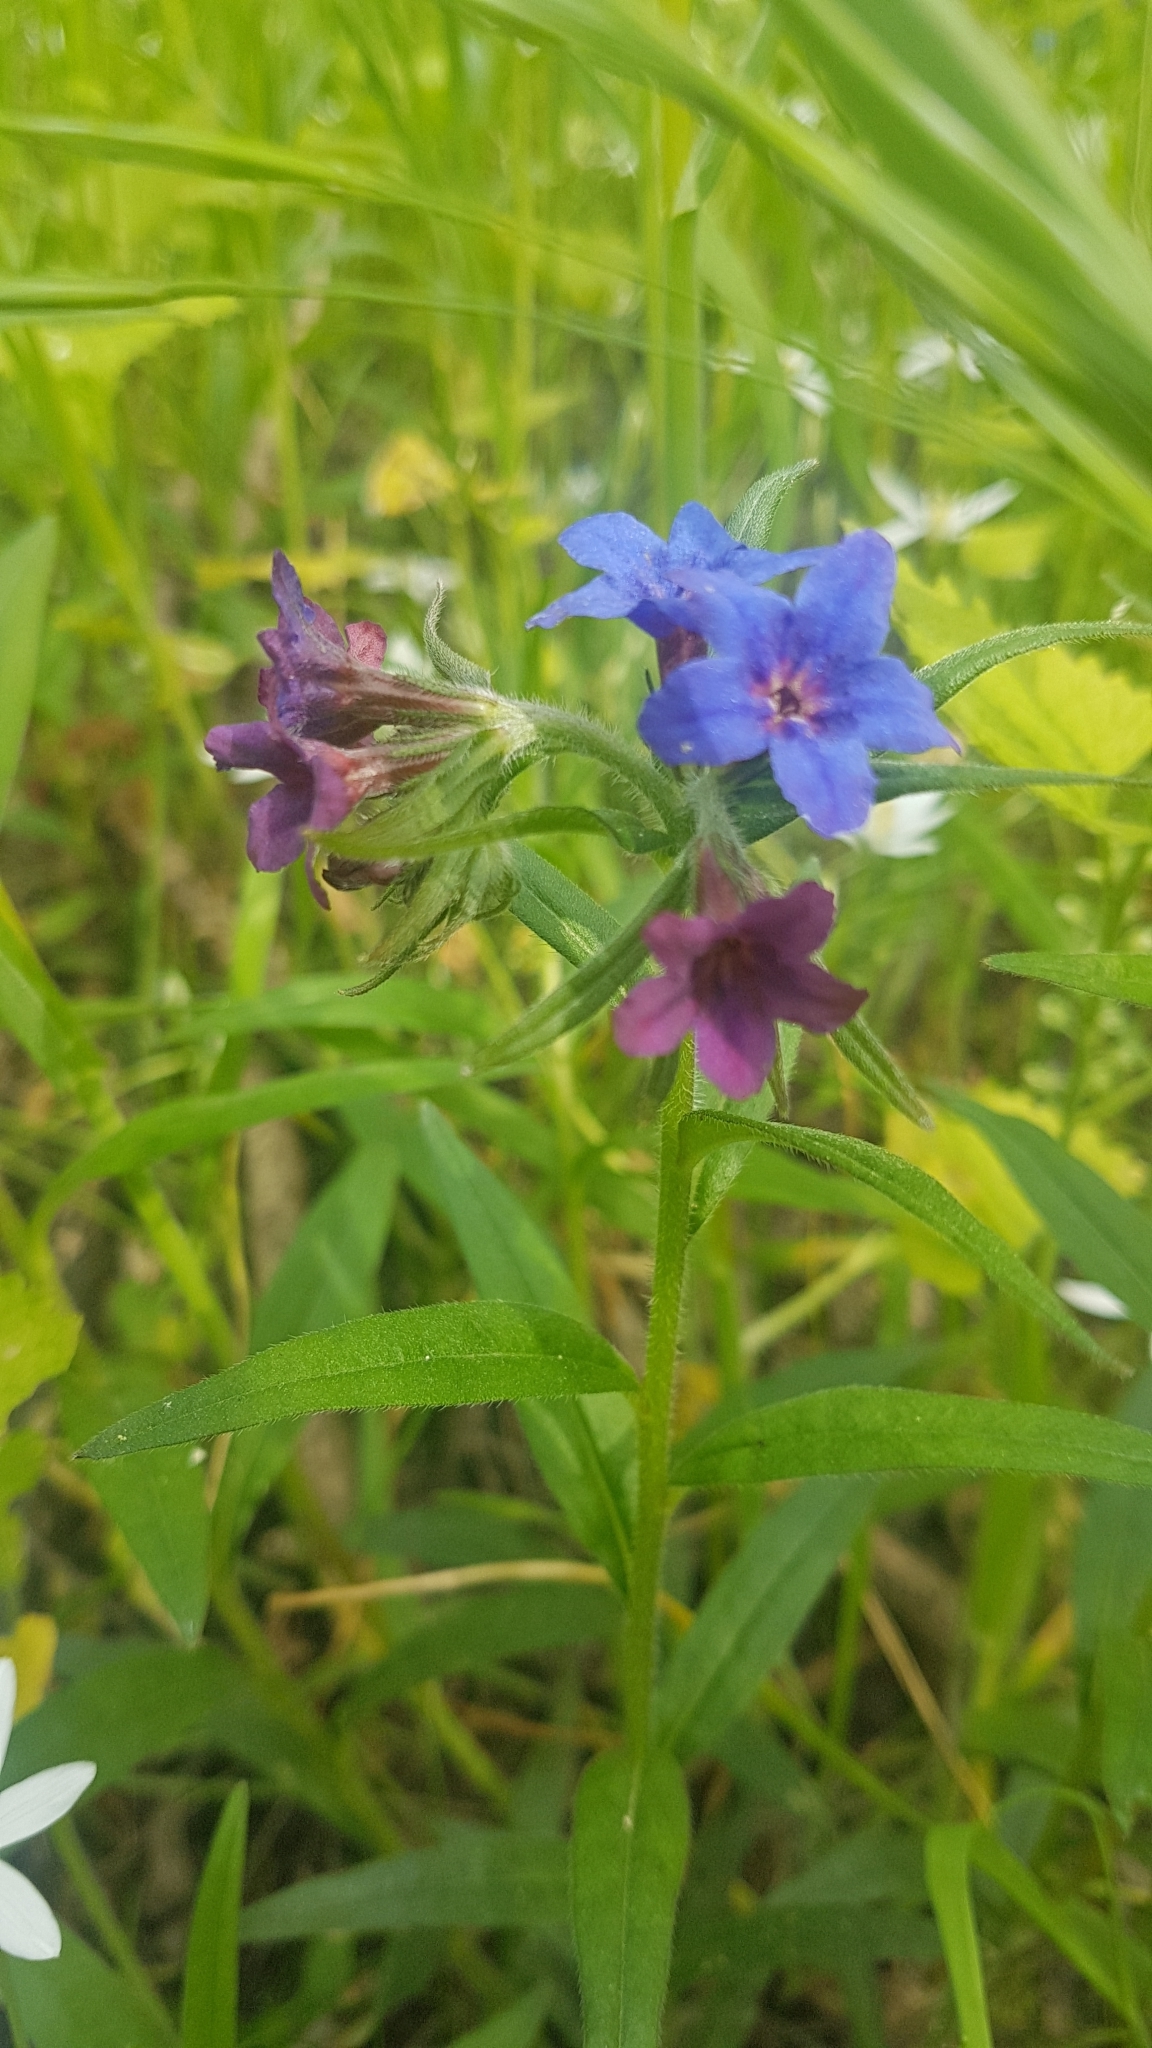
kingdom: Plantae
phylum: Tracheophyta
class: Magnoliopsida
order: Boraginales
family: Boraginaceae
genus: Aegonychon
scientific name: Aegonychon purpurocaeruleum
